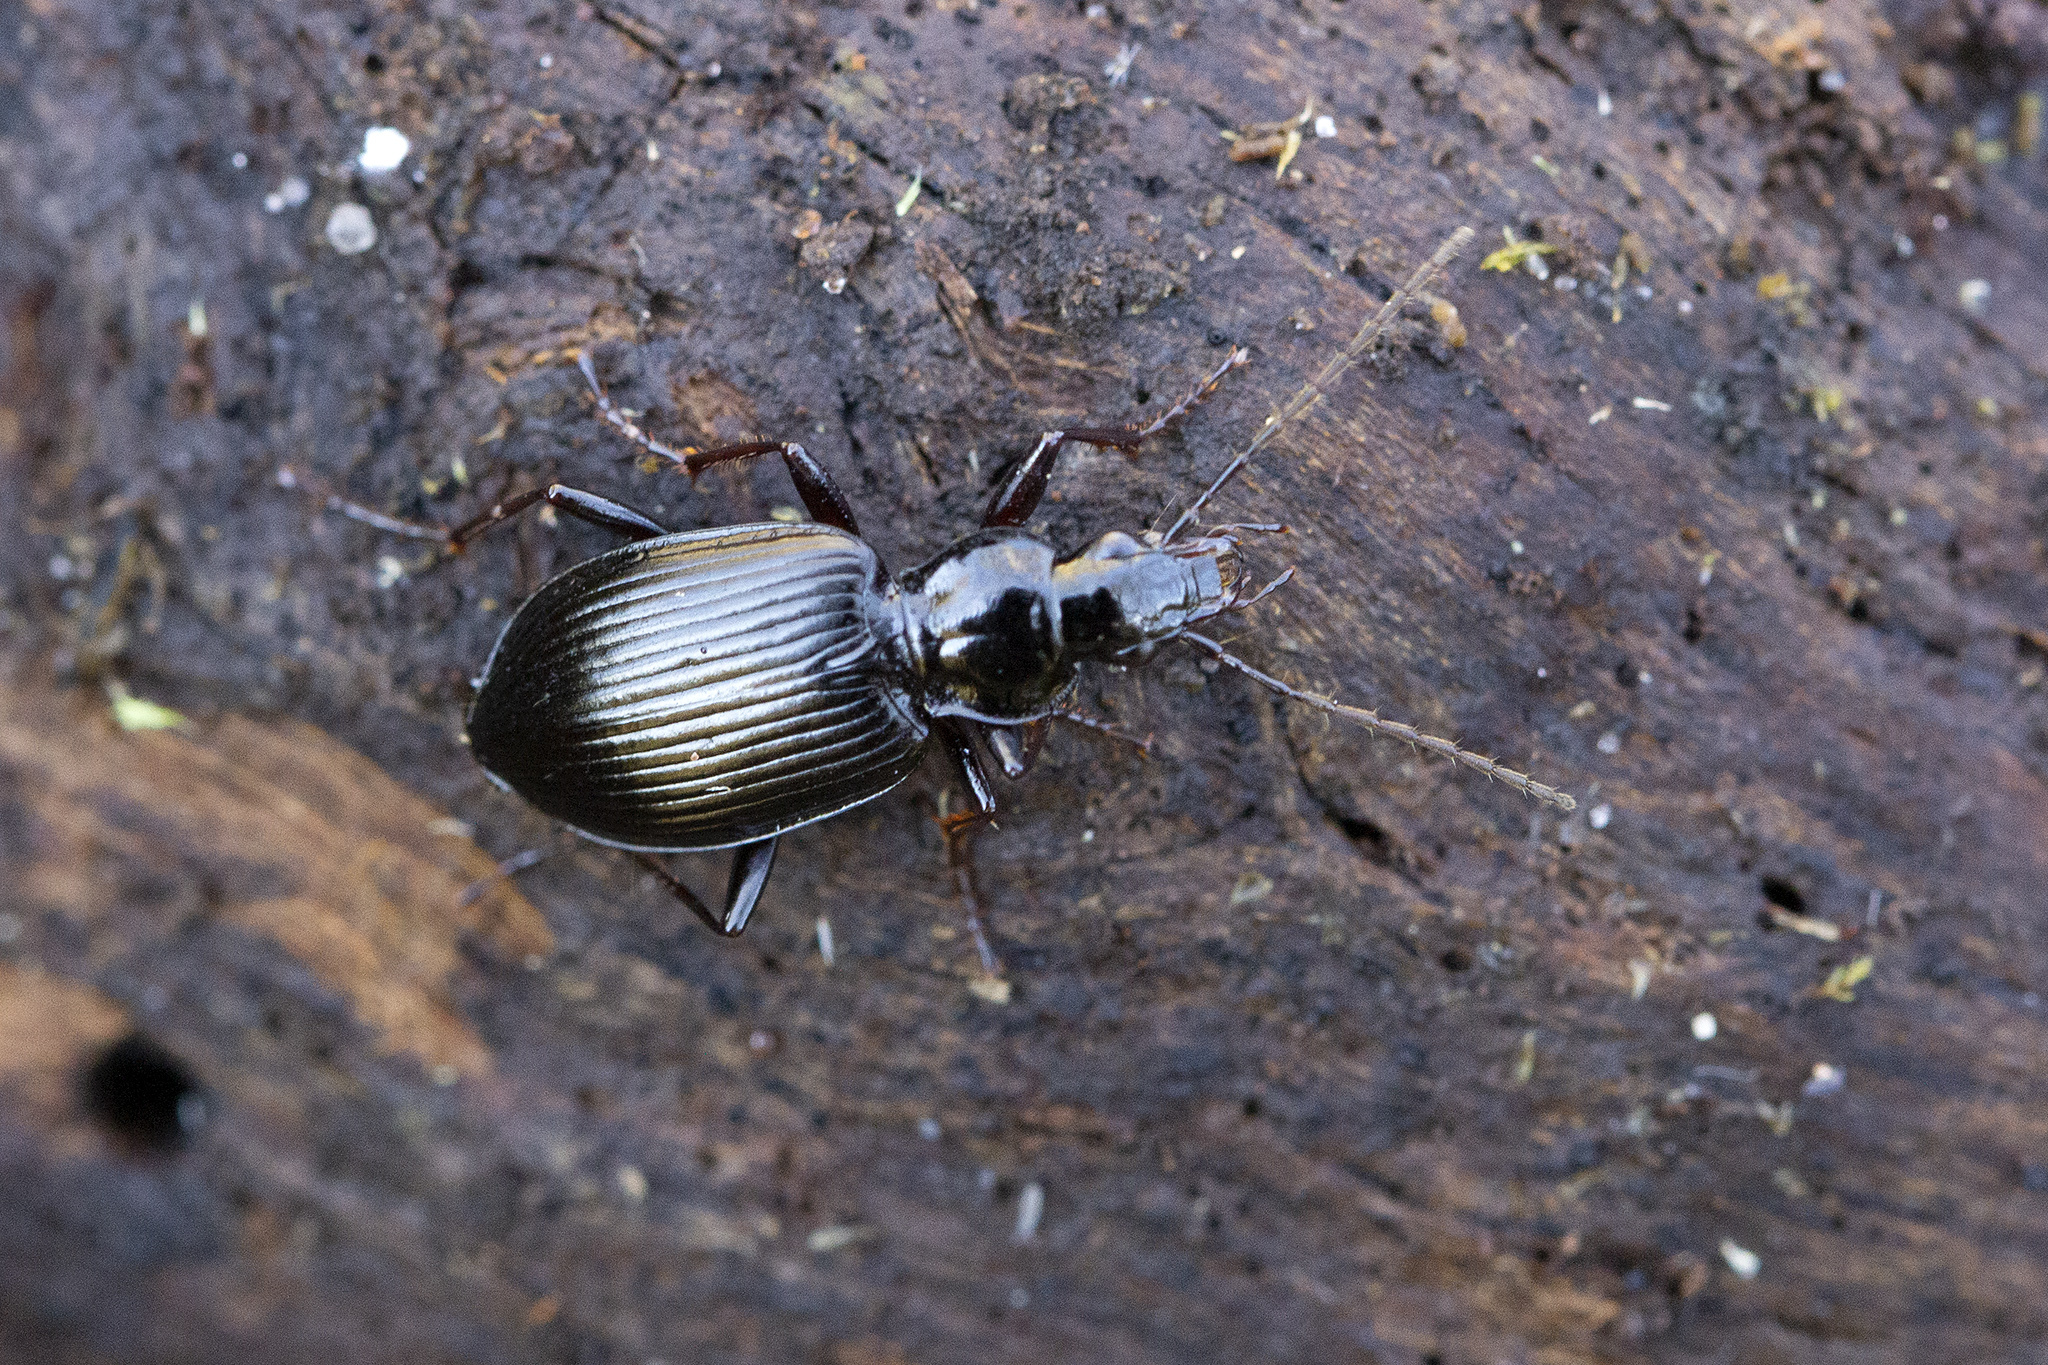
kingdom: Animalia
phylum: Arthropoda
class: Insecta
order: Coleoptera
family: Carabidae
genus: Platynus
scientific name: Platynus assimilis
